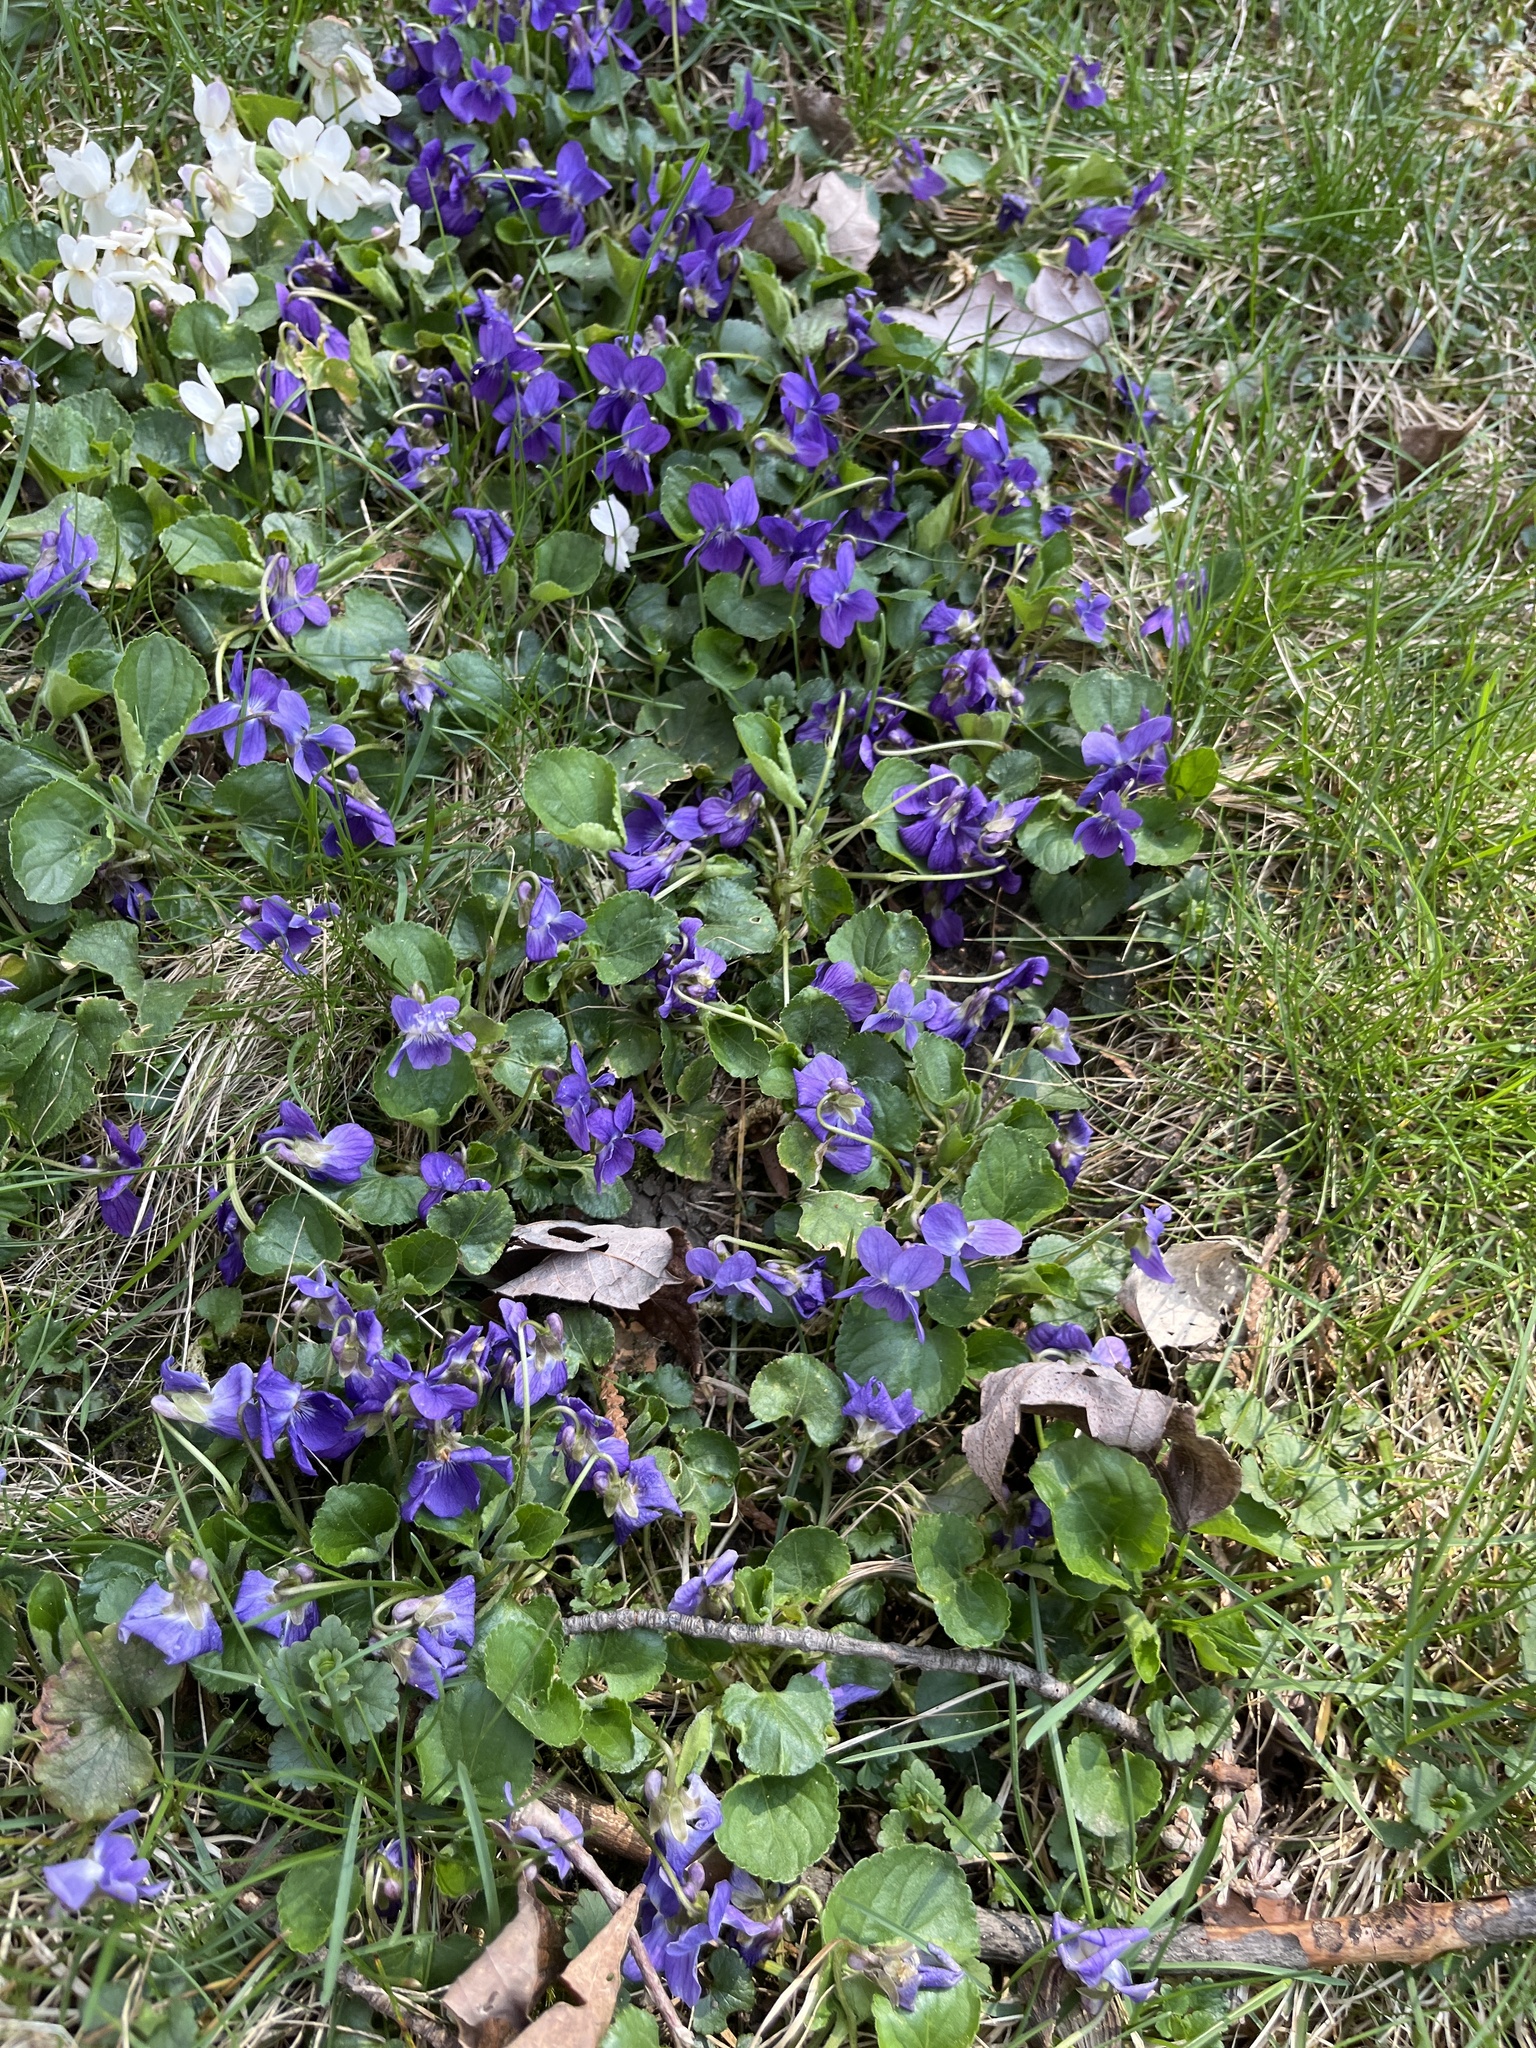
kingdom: Plantae
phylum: Tracheophyta
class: Magnoliopsida
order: Malpighiales
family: Violaceae
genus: Viola
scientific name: Viola odorata
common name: Sweet violet
